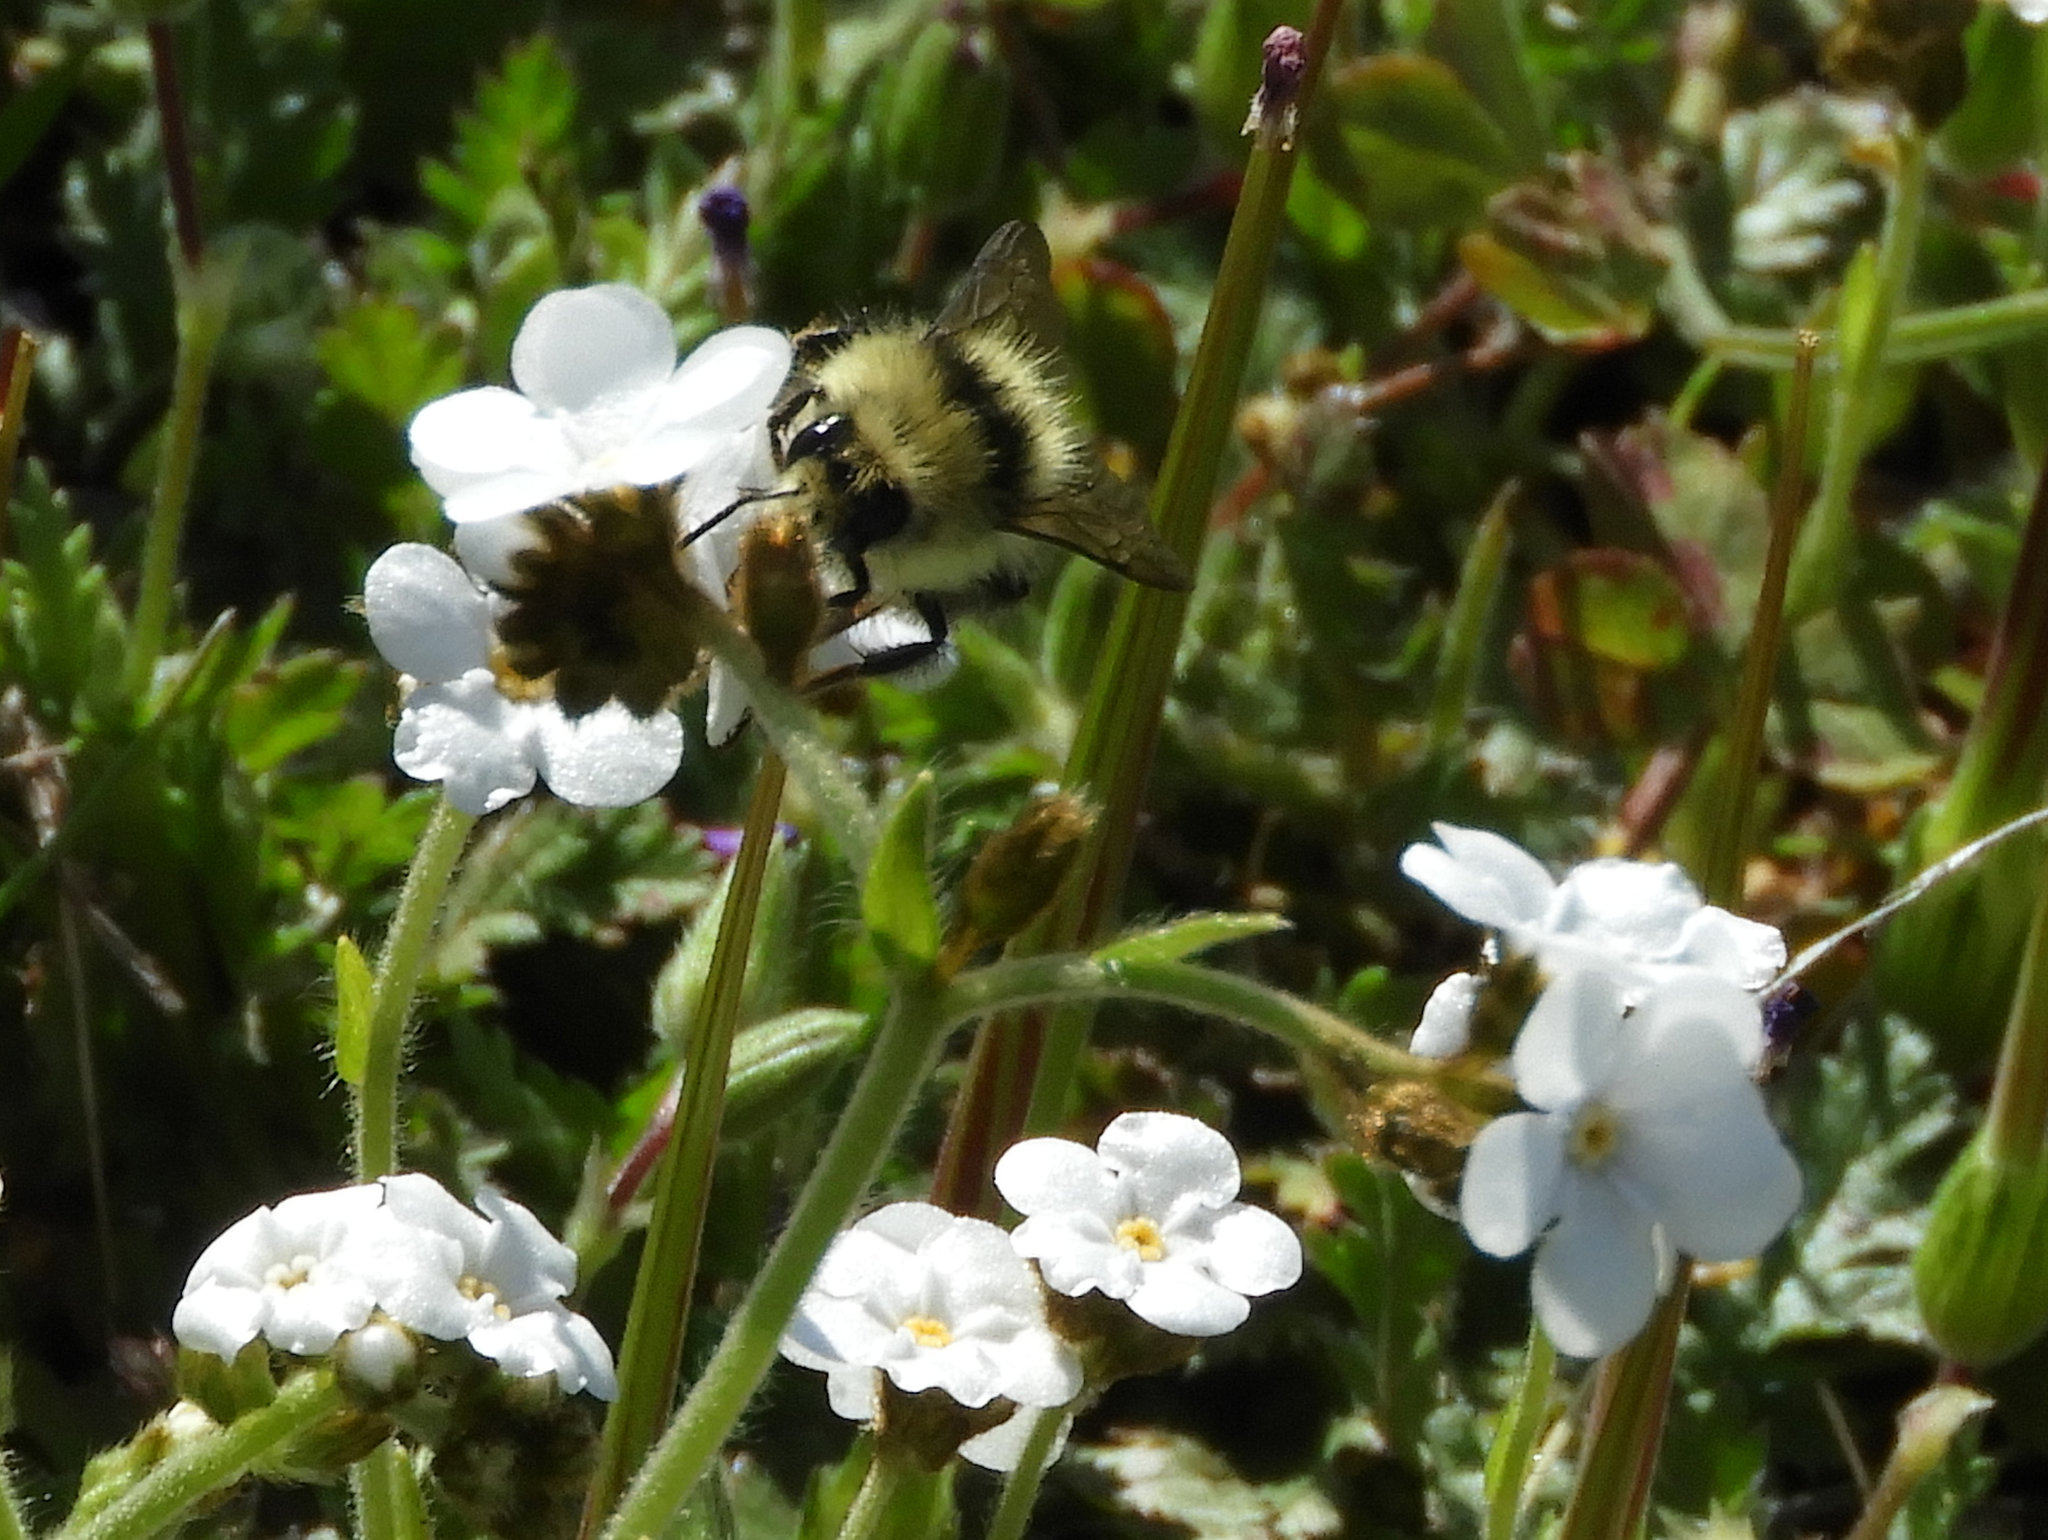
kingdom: Animalia
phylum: Arthropoda
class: Insecta
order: Hymenoptera
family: Apidae
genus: Bombus
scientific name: Bombus melanopygus
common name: Black tail bumble bee
